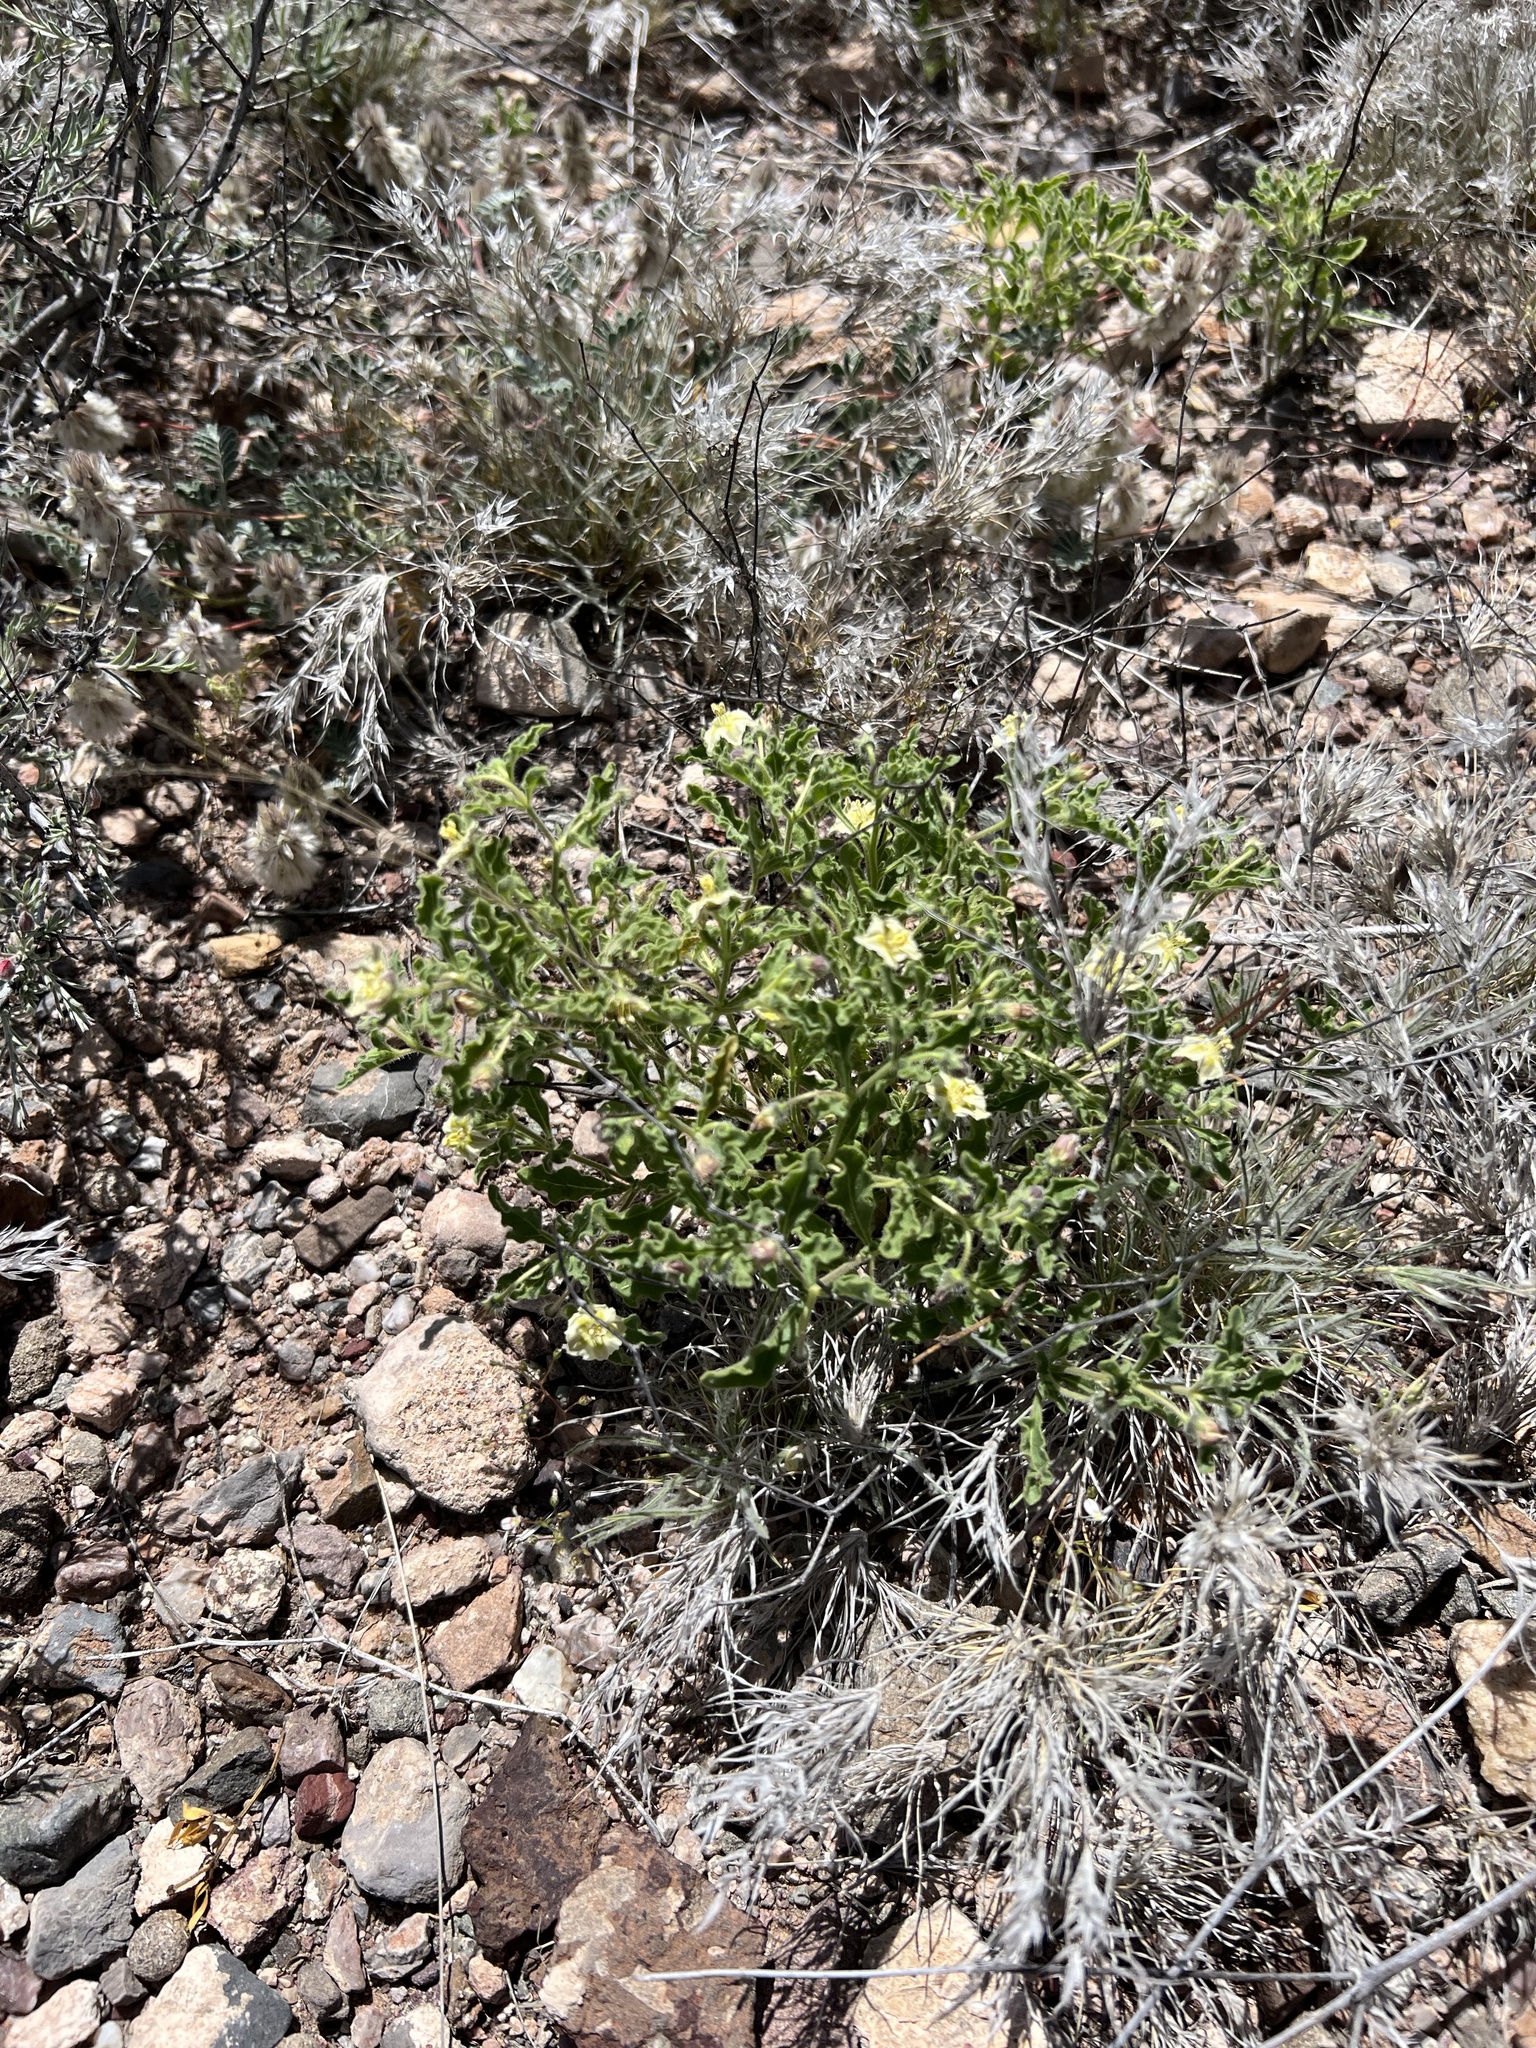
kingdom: Plantae
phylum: Tracheophyta
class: Magnoliopsida
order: Solanales
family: Solanaceae
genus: Chamaesaracha
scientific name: Chamaesaracha sordida
